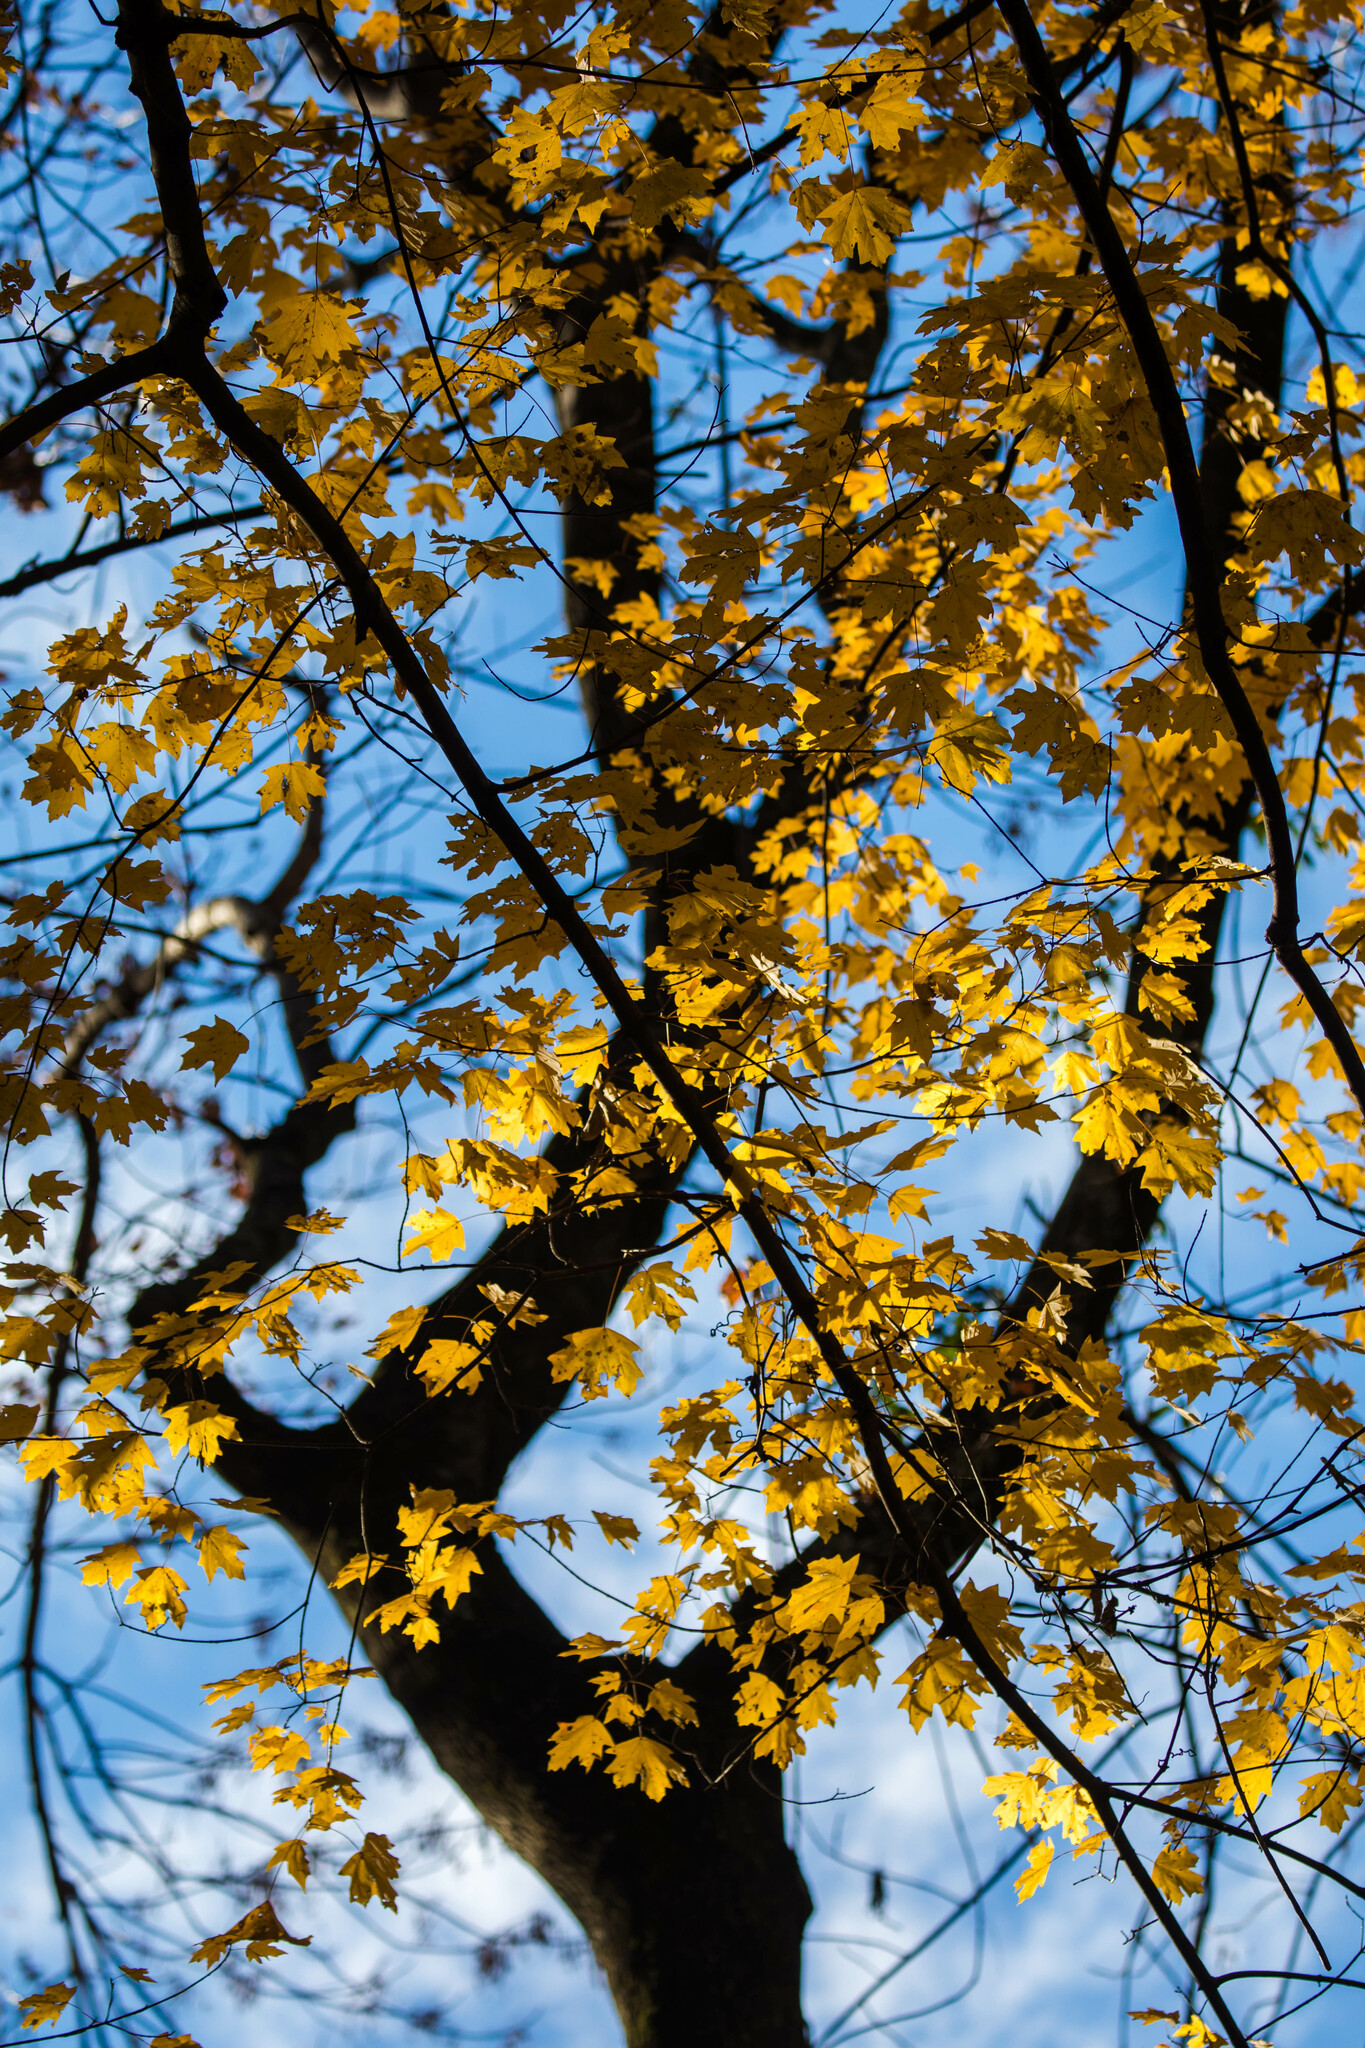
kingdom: Plantae
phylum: Tracheophyta
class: Magnoliopsida
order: Sapindales
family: Sapindaceae
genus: Acer
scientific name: Acer saccharum
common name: Sugar maple
